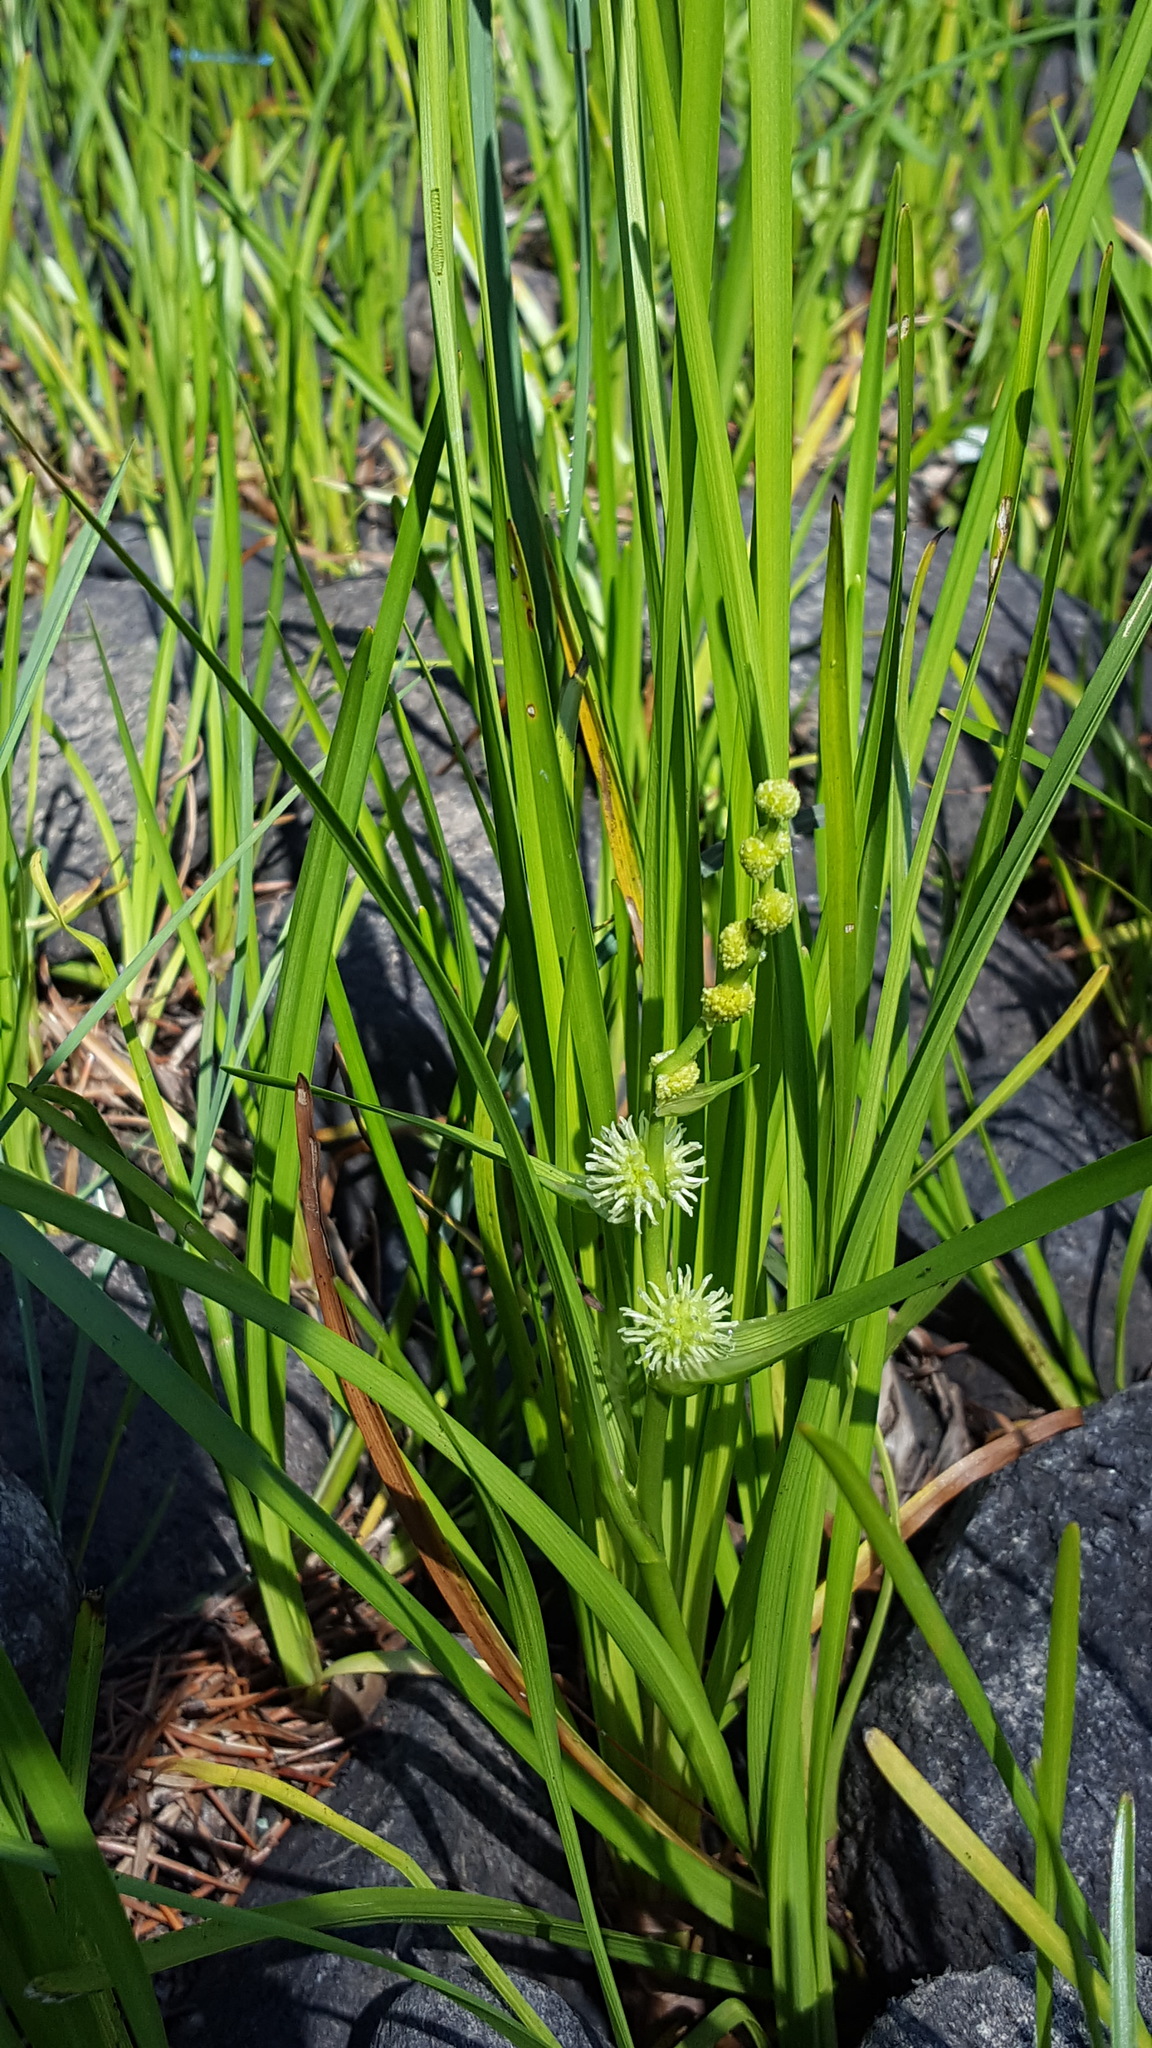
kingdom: Plantae
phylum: Tracheophyta
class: Liliopsida
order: Poales
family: Typhaceae
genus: Sparganium
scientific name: Sparganium emersum
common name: Unbranched bur-reed
